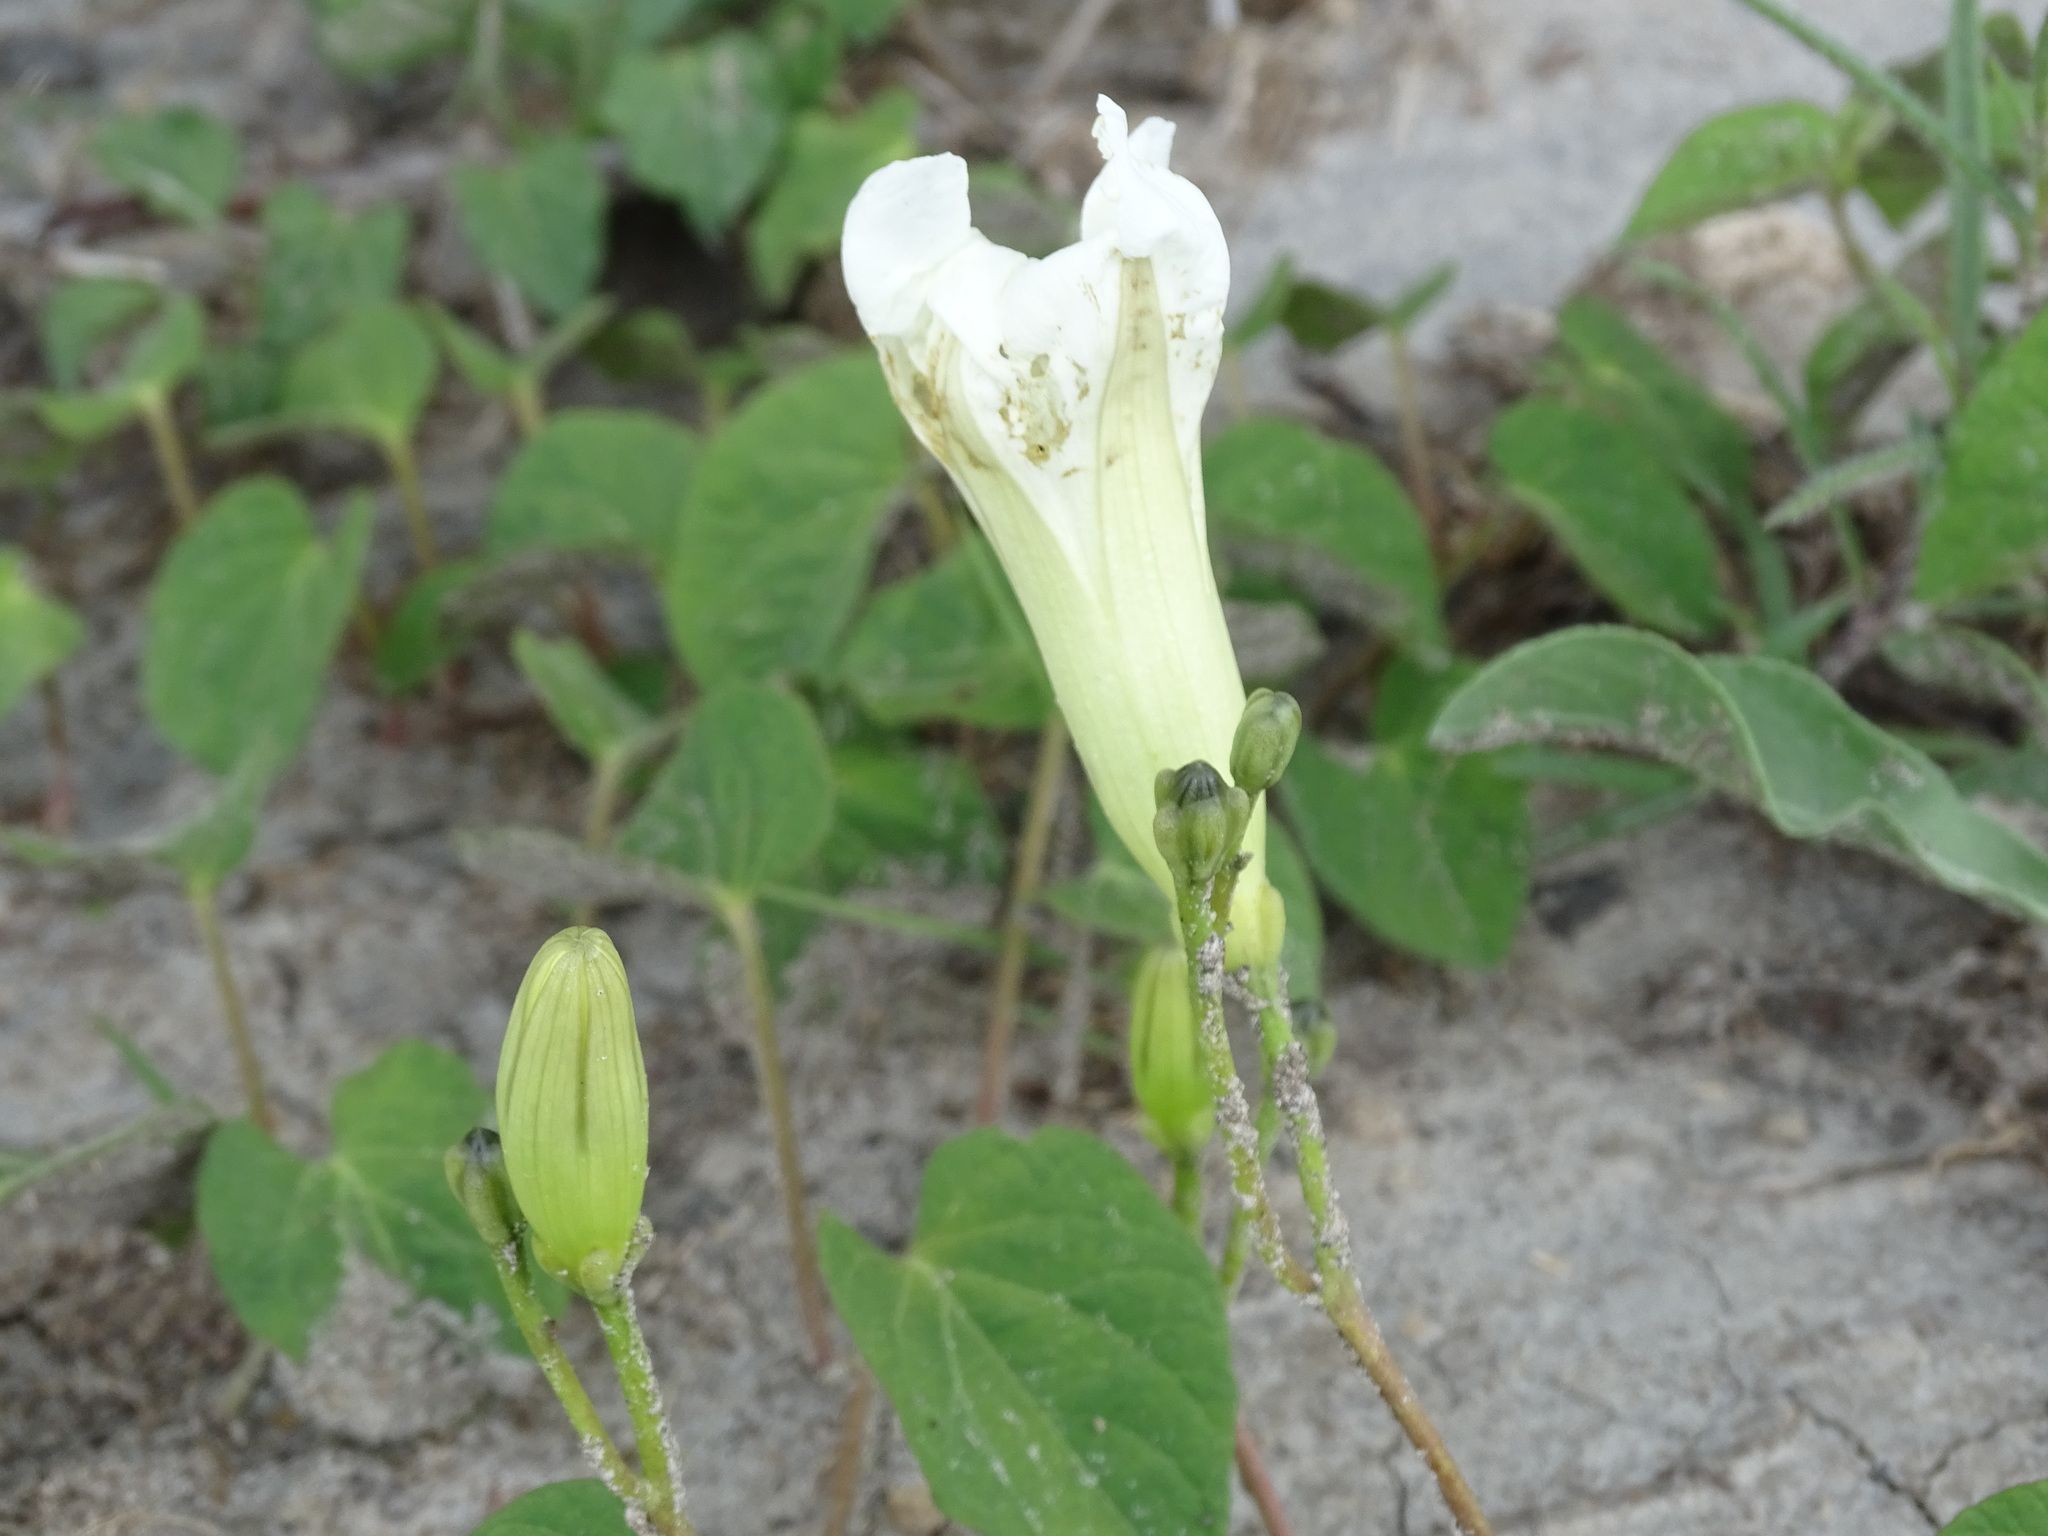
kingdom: Plantae
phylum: Tracheophyta
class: Magnoliopsida
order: Solanales
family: Convolvulaceae
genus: Ipomoea
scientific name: Ipomoea proxima
